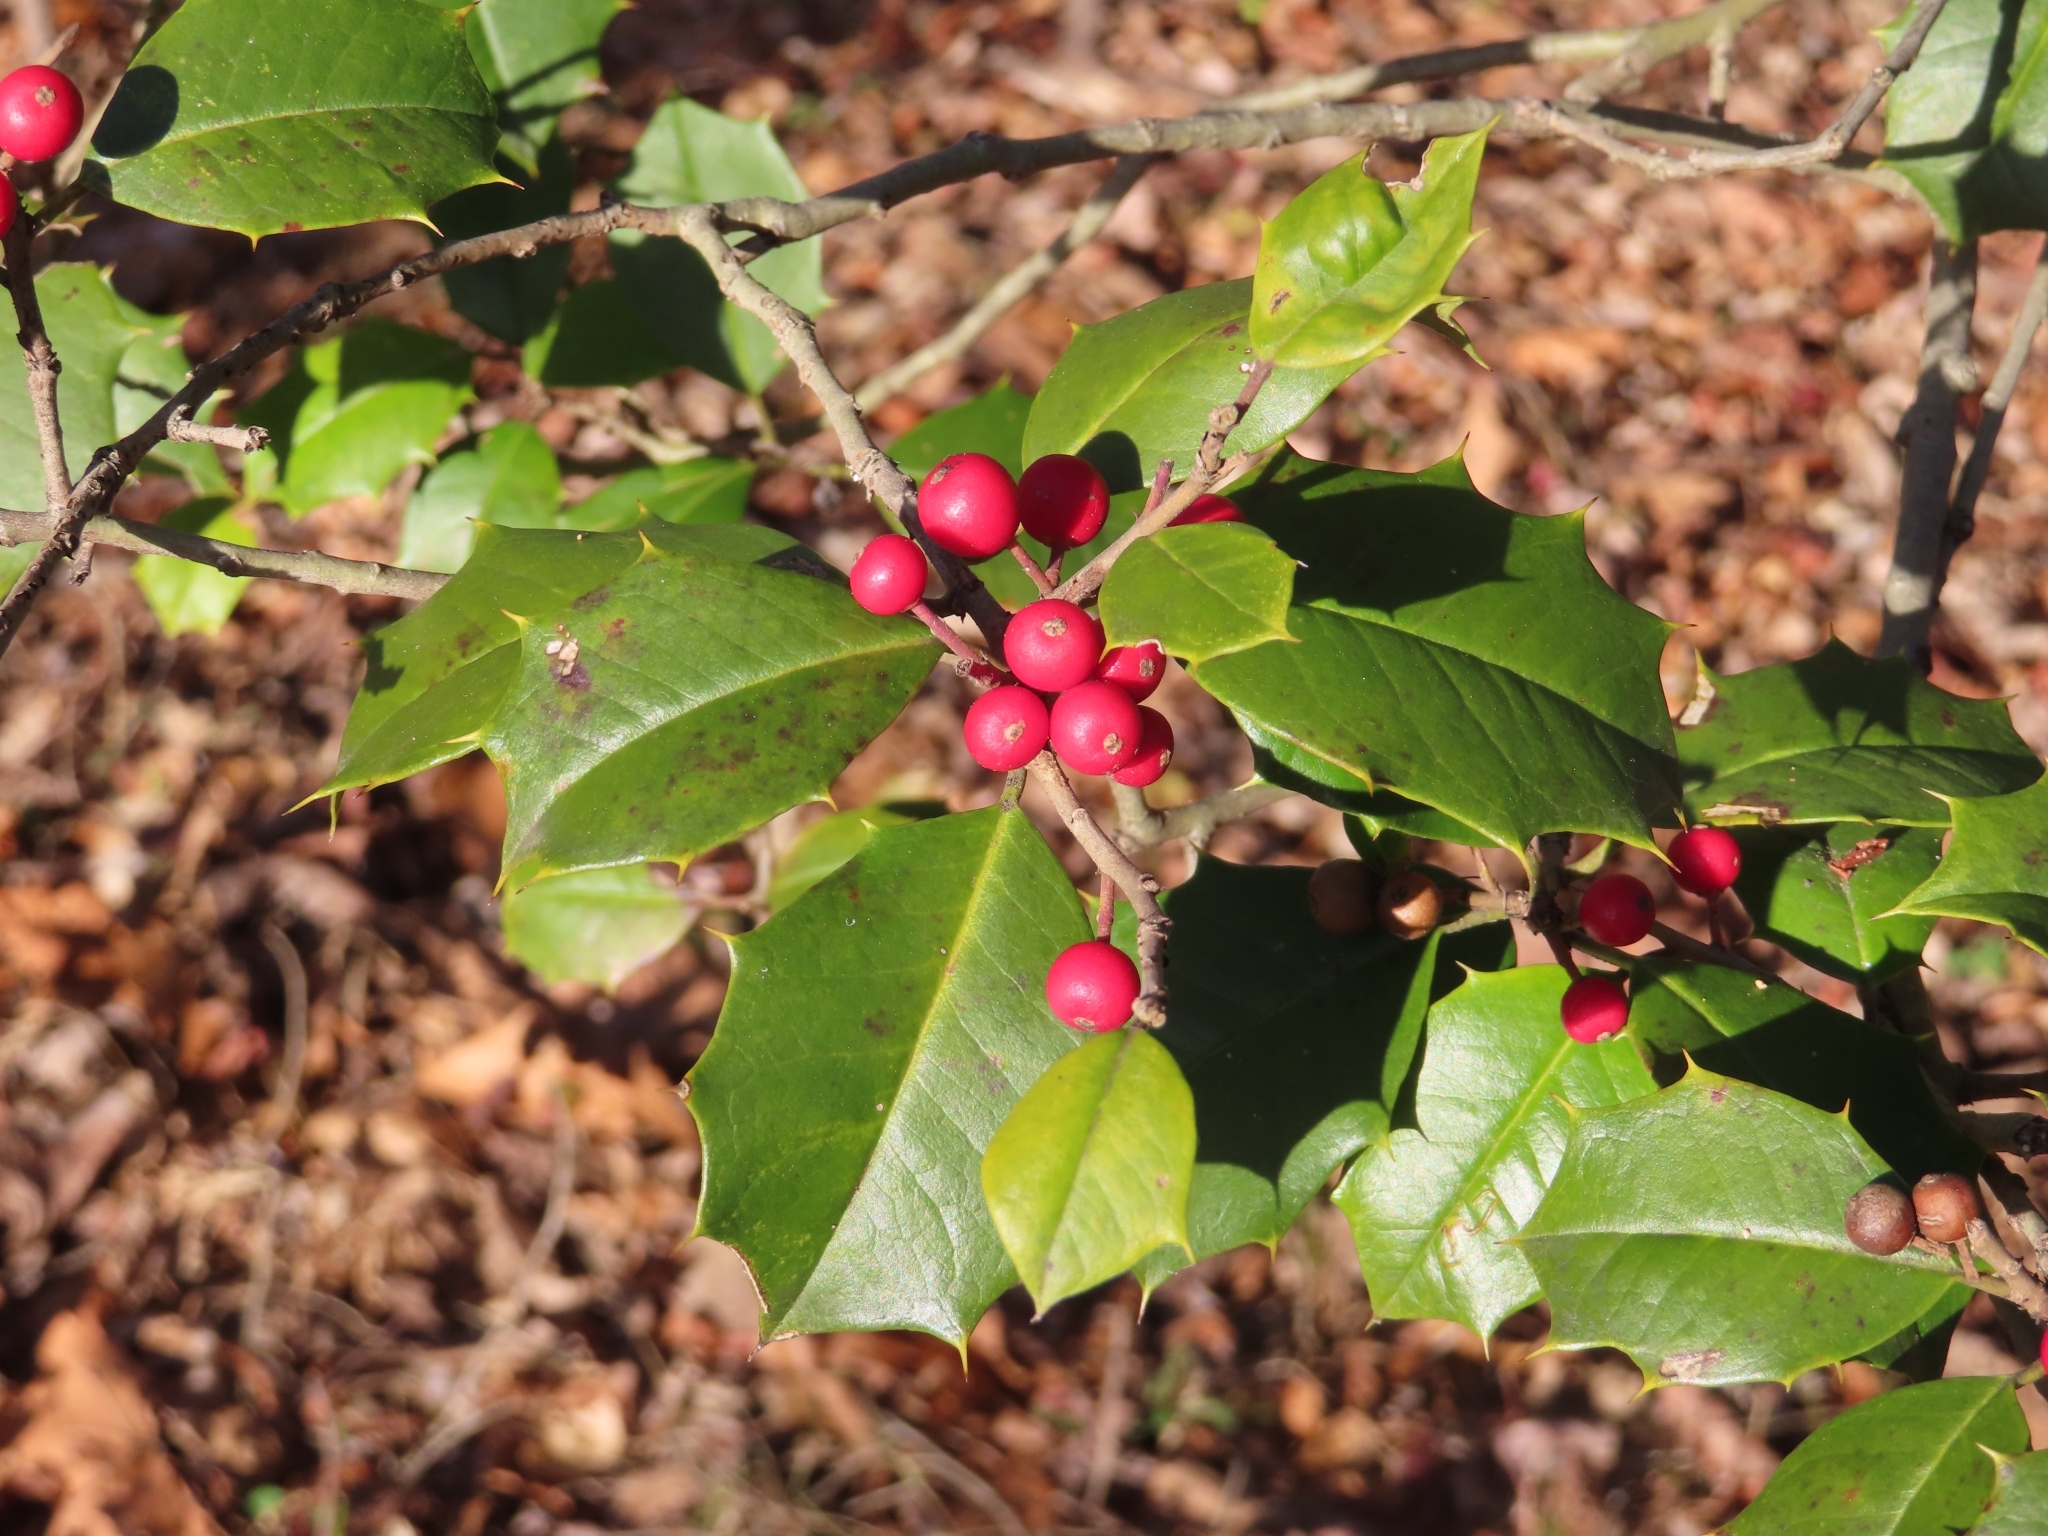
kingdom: Plantae
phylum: Tracheophyta
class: Magnoliopsida
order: Aquifoliales
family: Aquifoliaceae
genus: Ilex
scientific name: Ilex opaca
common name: American holly
